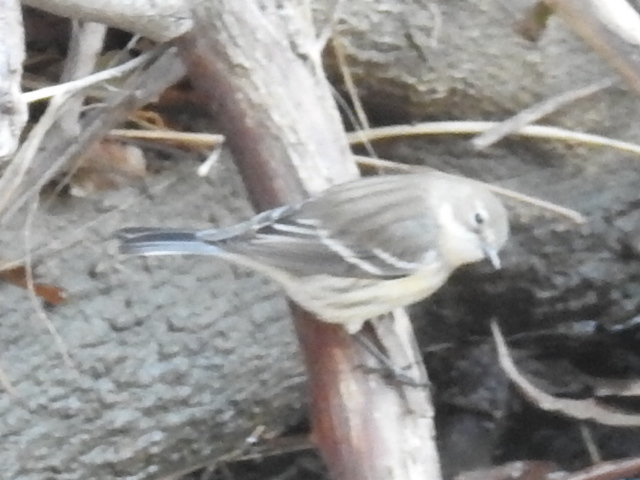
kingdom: Animalia
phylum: Chordata
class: Aves
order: Passeriformes
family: Parulidae
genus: Setophaga
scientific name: Setophaga coronata
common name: Myrtle warbler
